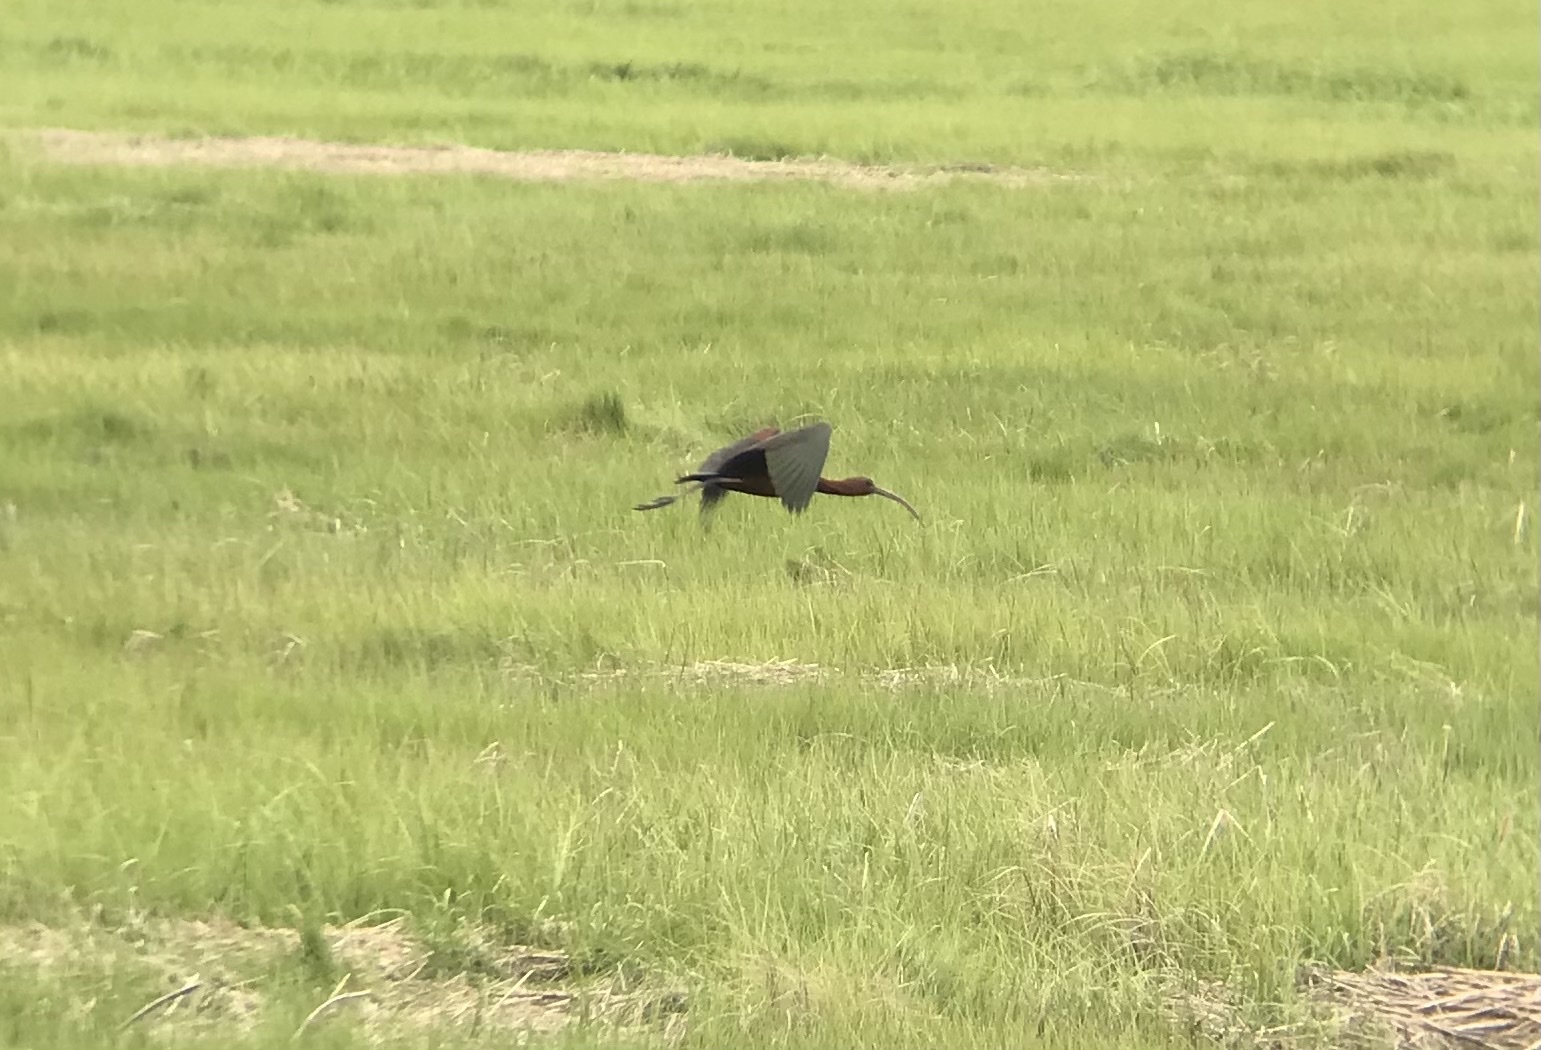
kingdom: Animalia
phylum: Chordata
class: Aves
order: Pelecaniformes
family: Threskiornithidae
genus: Plegadis
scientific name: Plegadis falcinellus
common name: Glossy ibis
